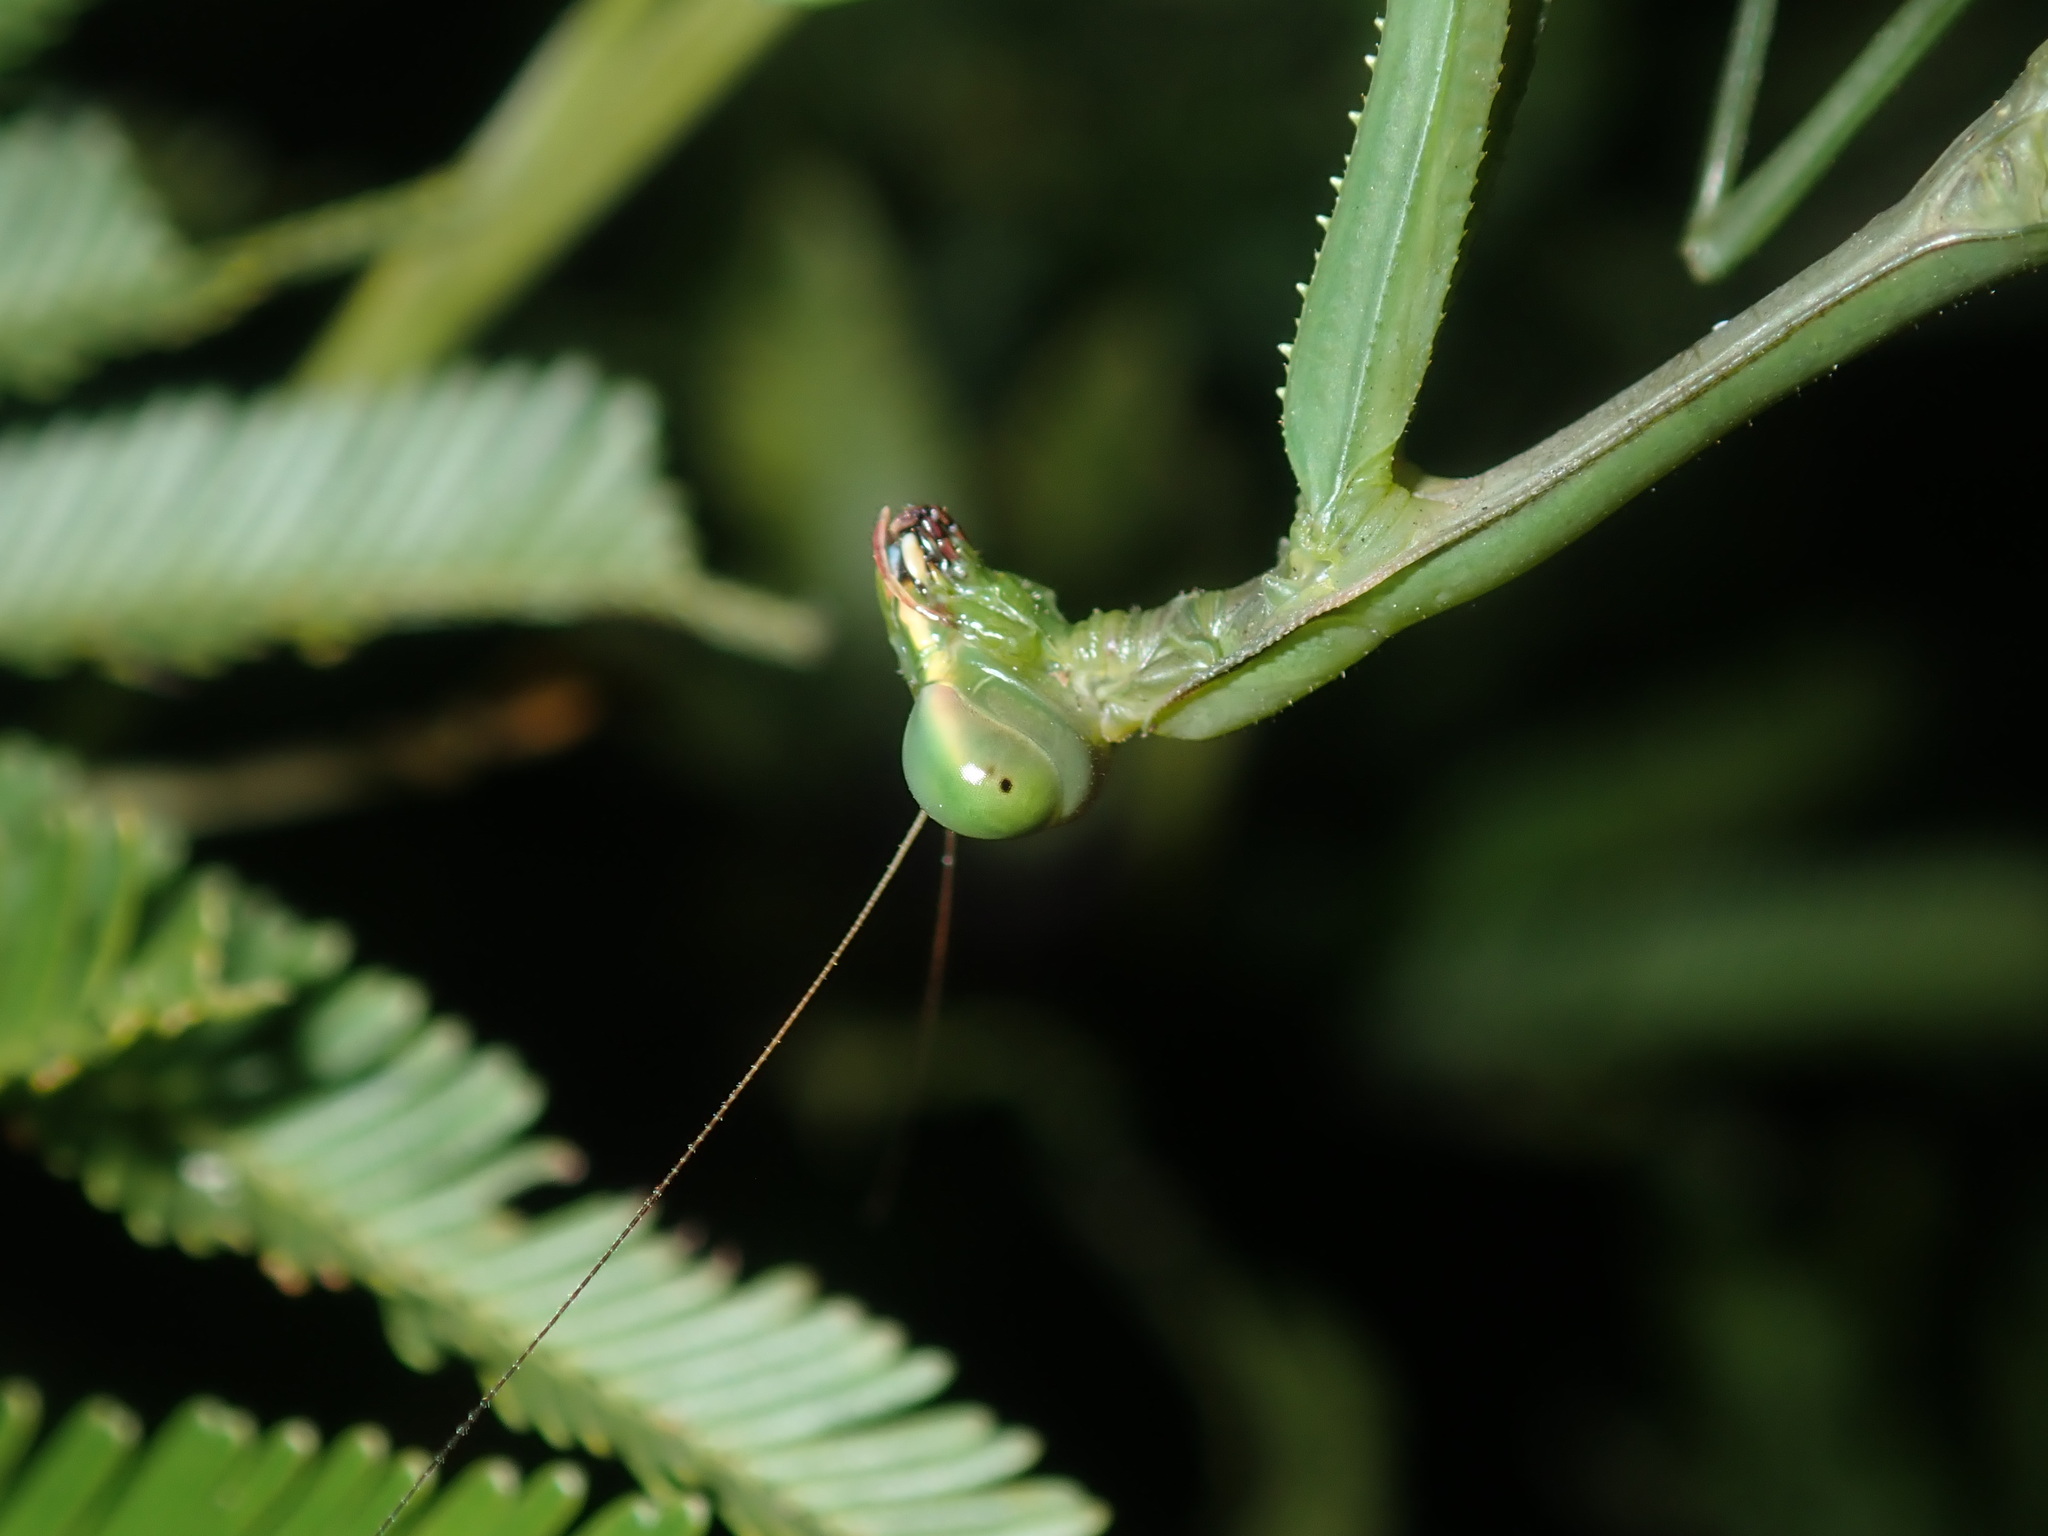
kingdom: Animalia
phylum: Arthropoda
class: Insecta
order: Mantodea
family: Mantidae
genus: Pseudomantis
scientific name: Pseudomantis albofimbriata
